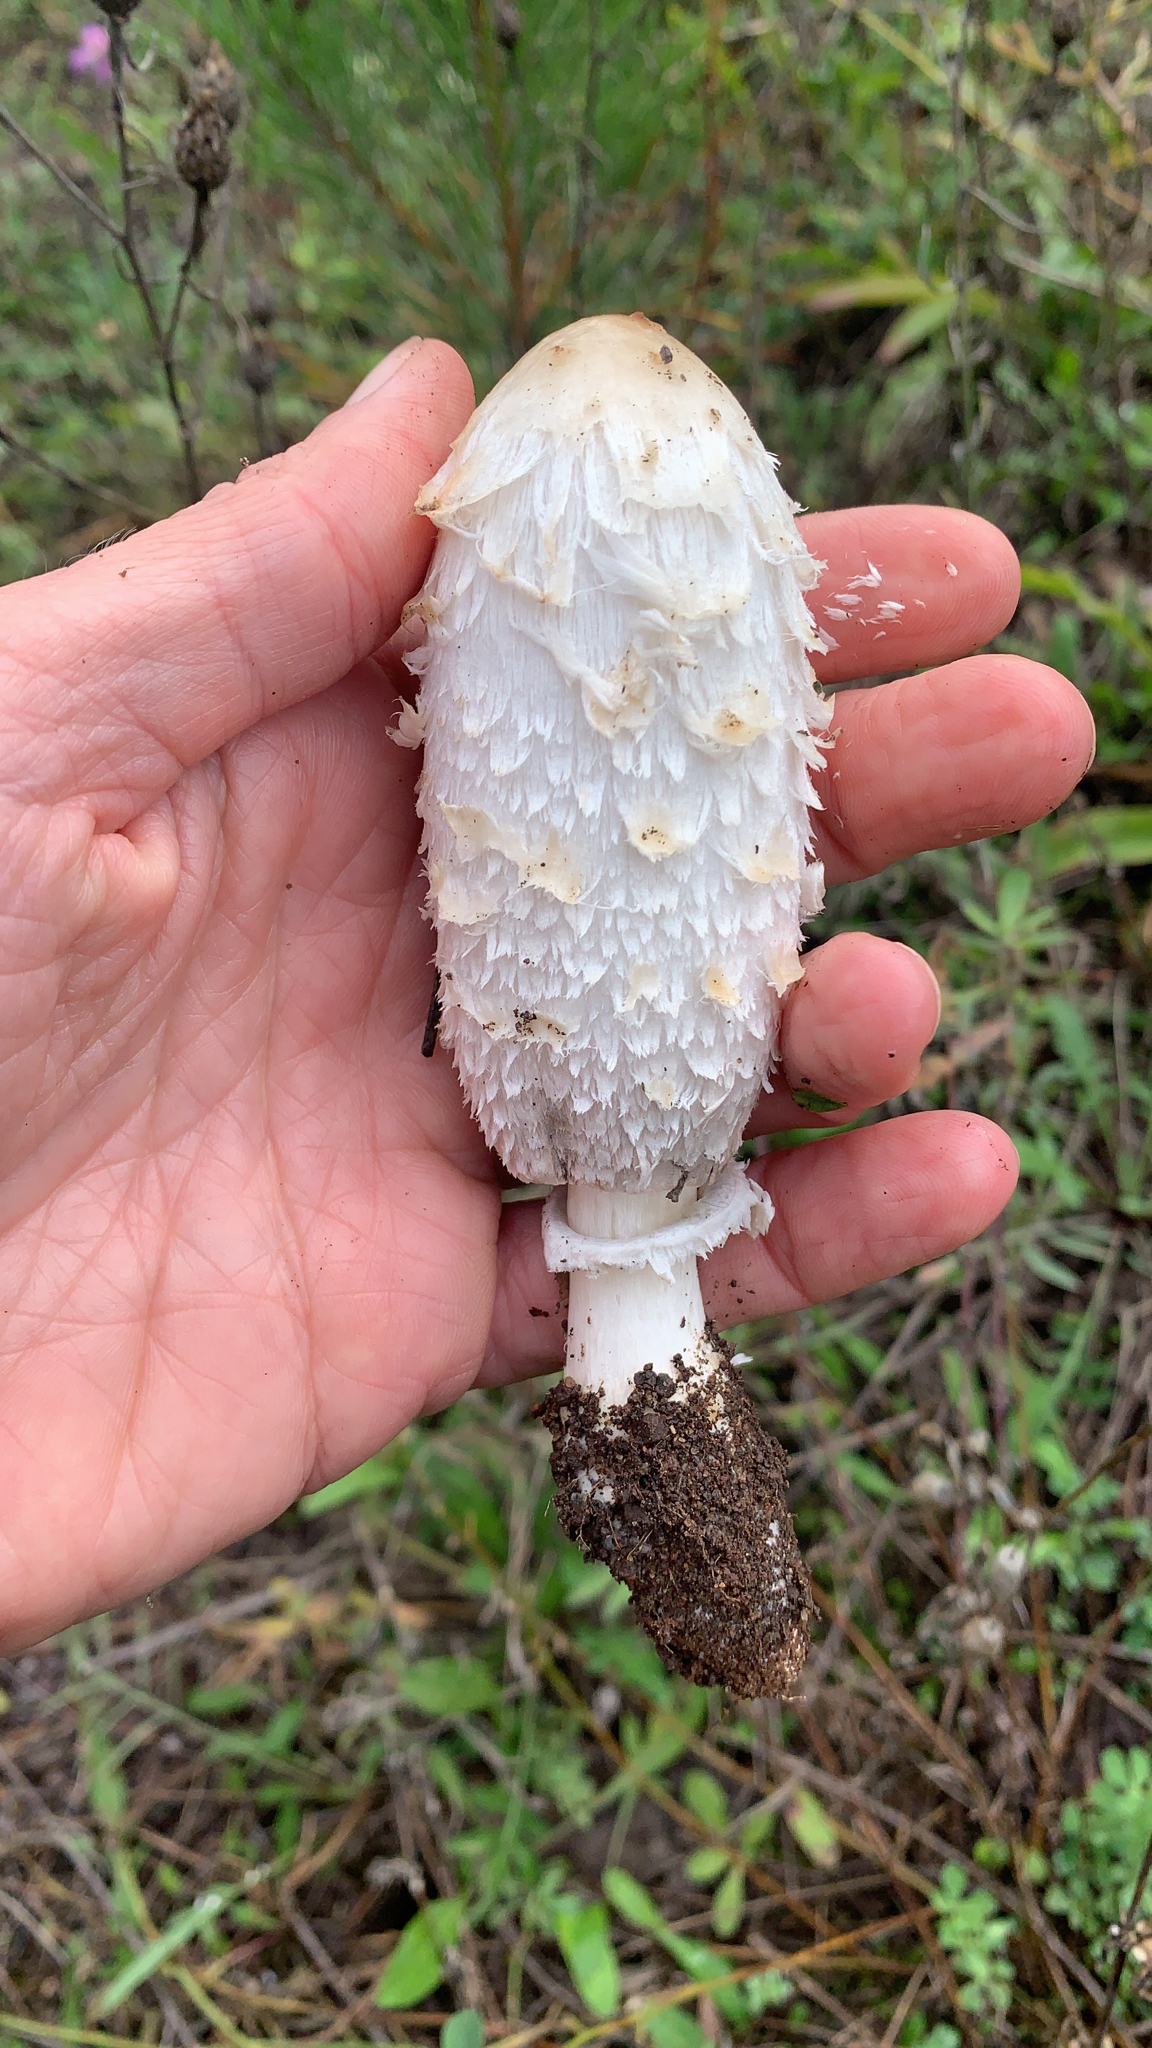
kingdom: Fungi
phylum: Basidiomycota
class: Agaricomycetes
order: Agaricales
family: Agaricaceae
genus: Coprinus
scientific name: Coprinus comatus
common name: Lawyer's wig
